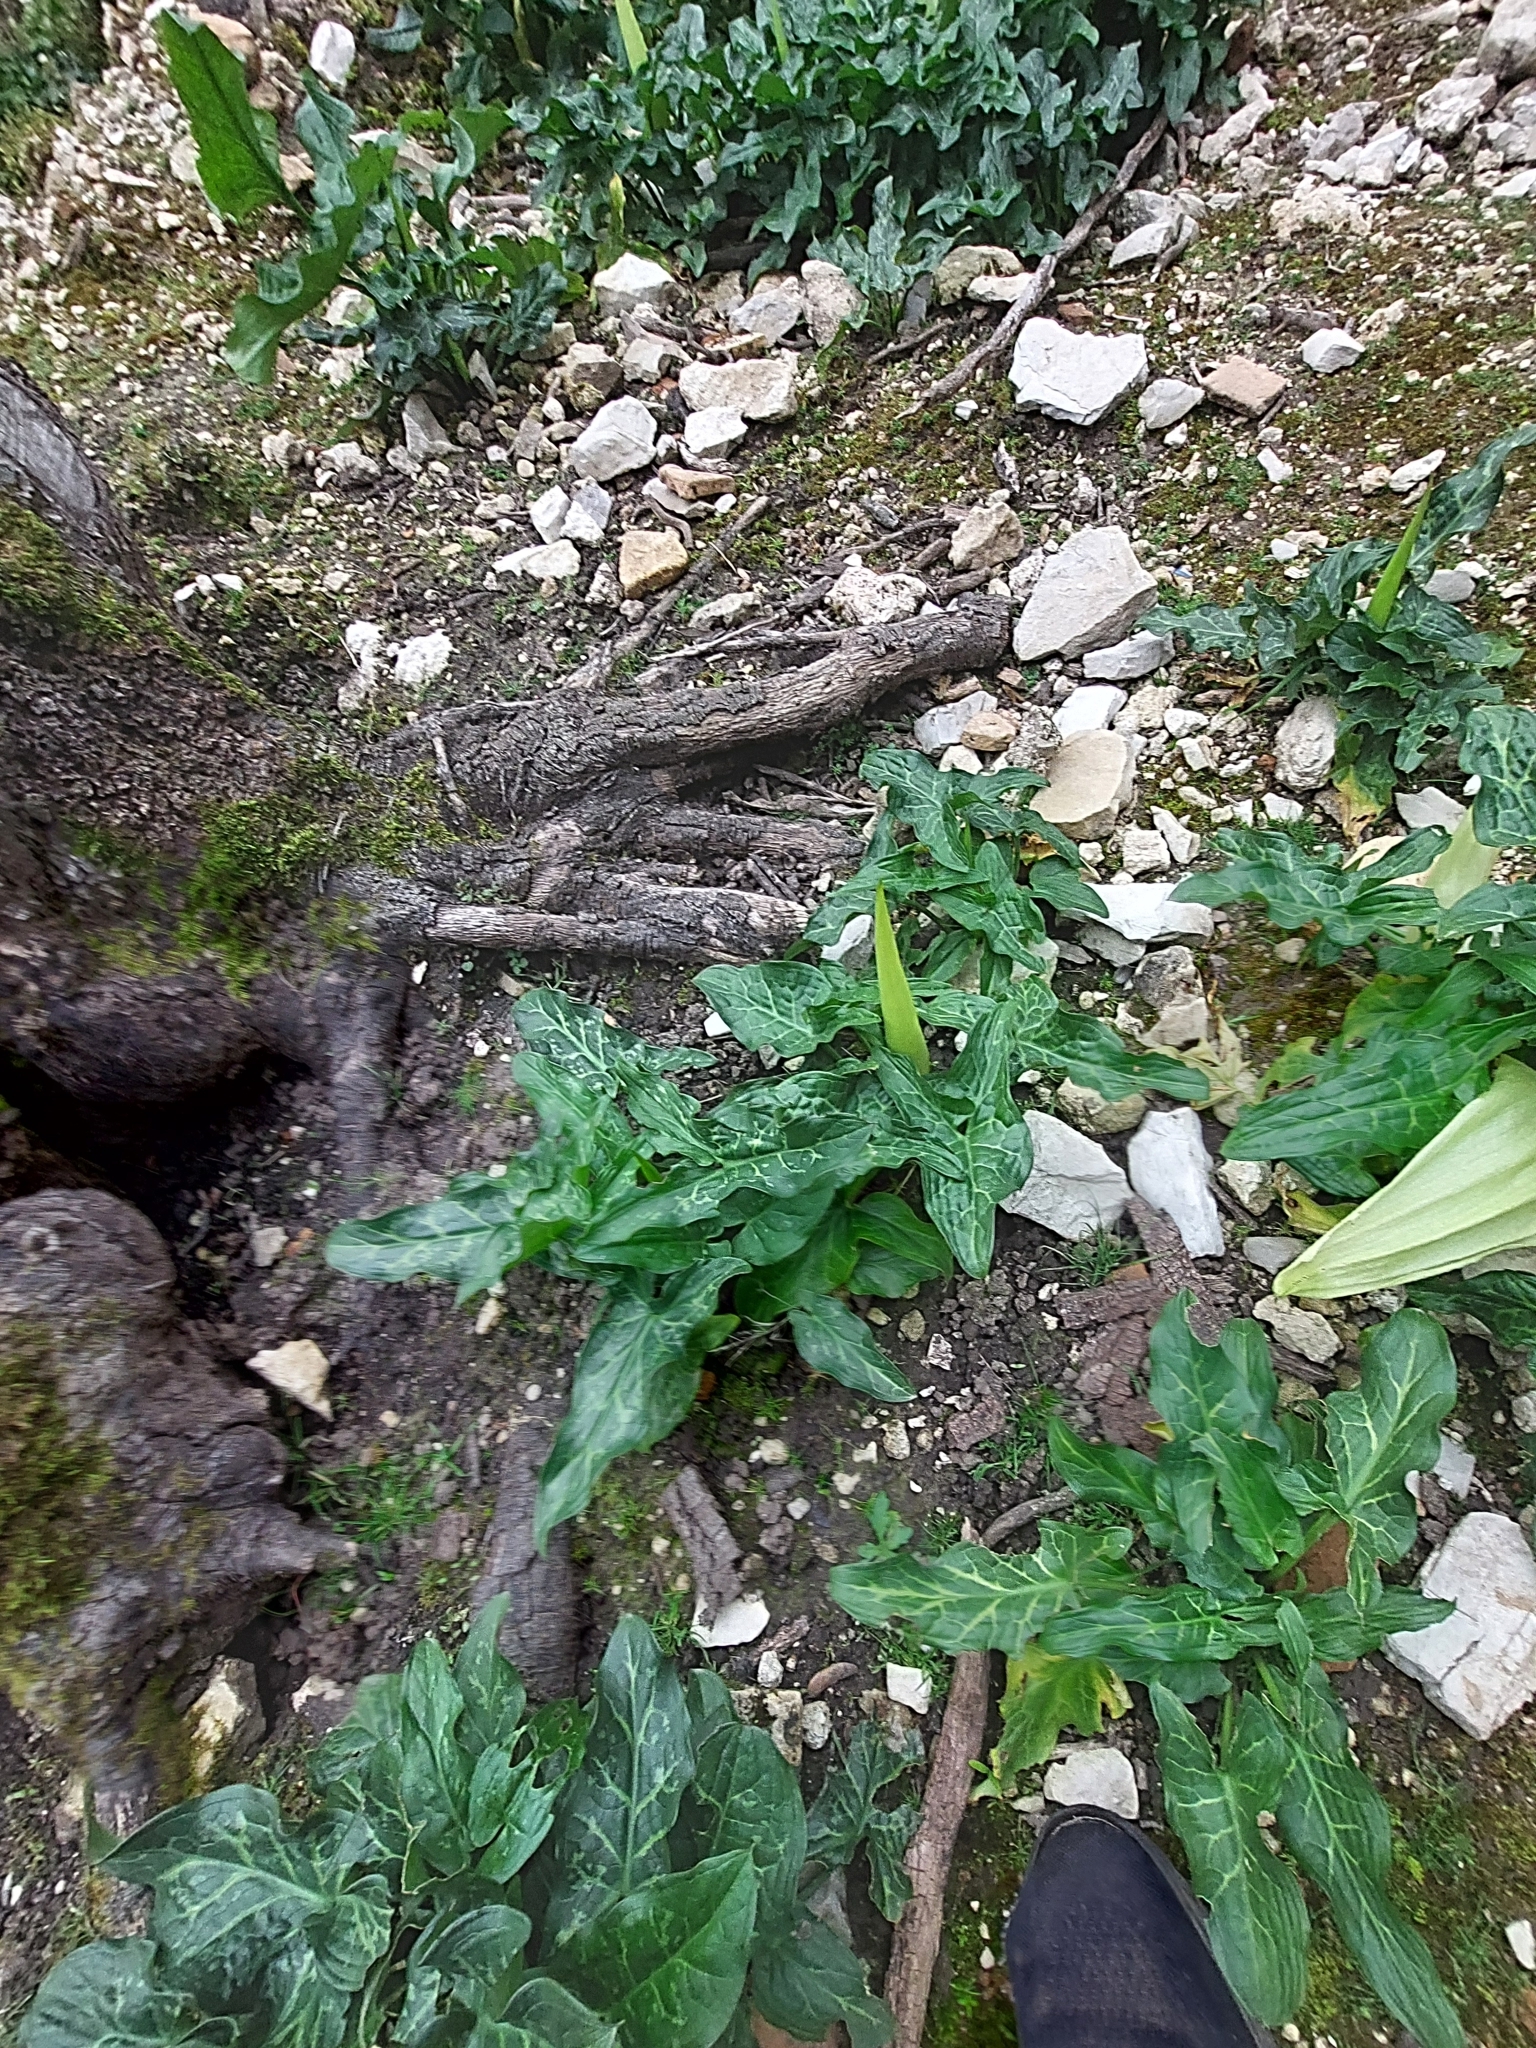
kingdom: Plantae
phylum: Tracheophyta
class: Liliopsida
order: Alismatales
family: Araceae
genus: Arum
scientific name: Arum italicum
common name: Italian lords-and-ladies
